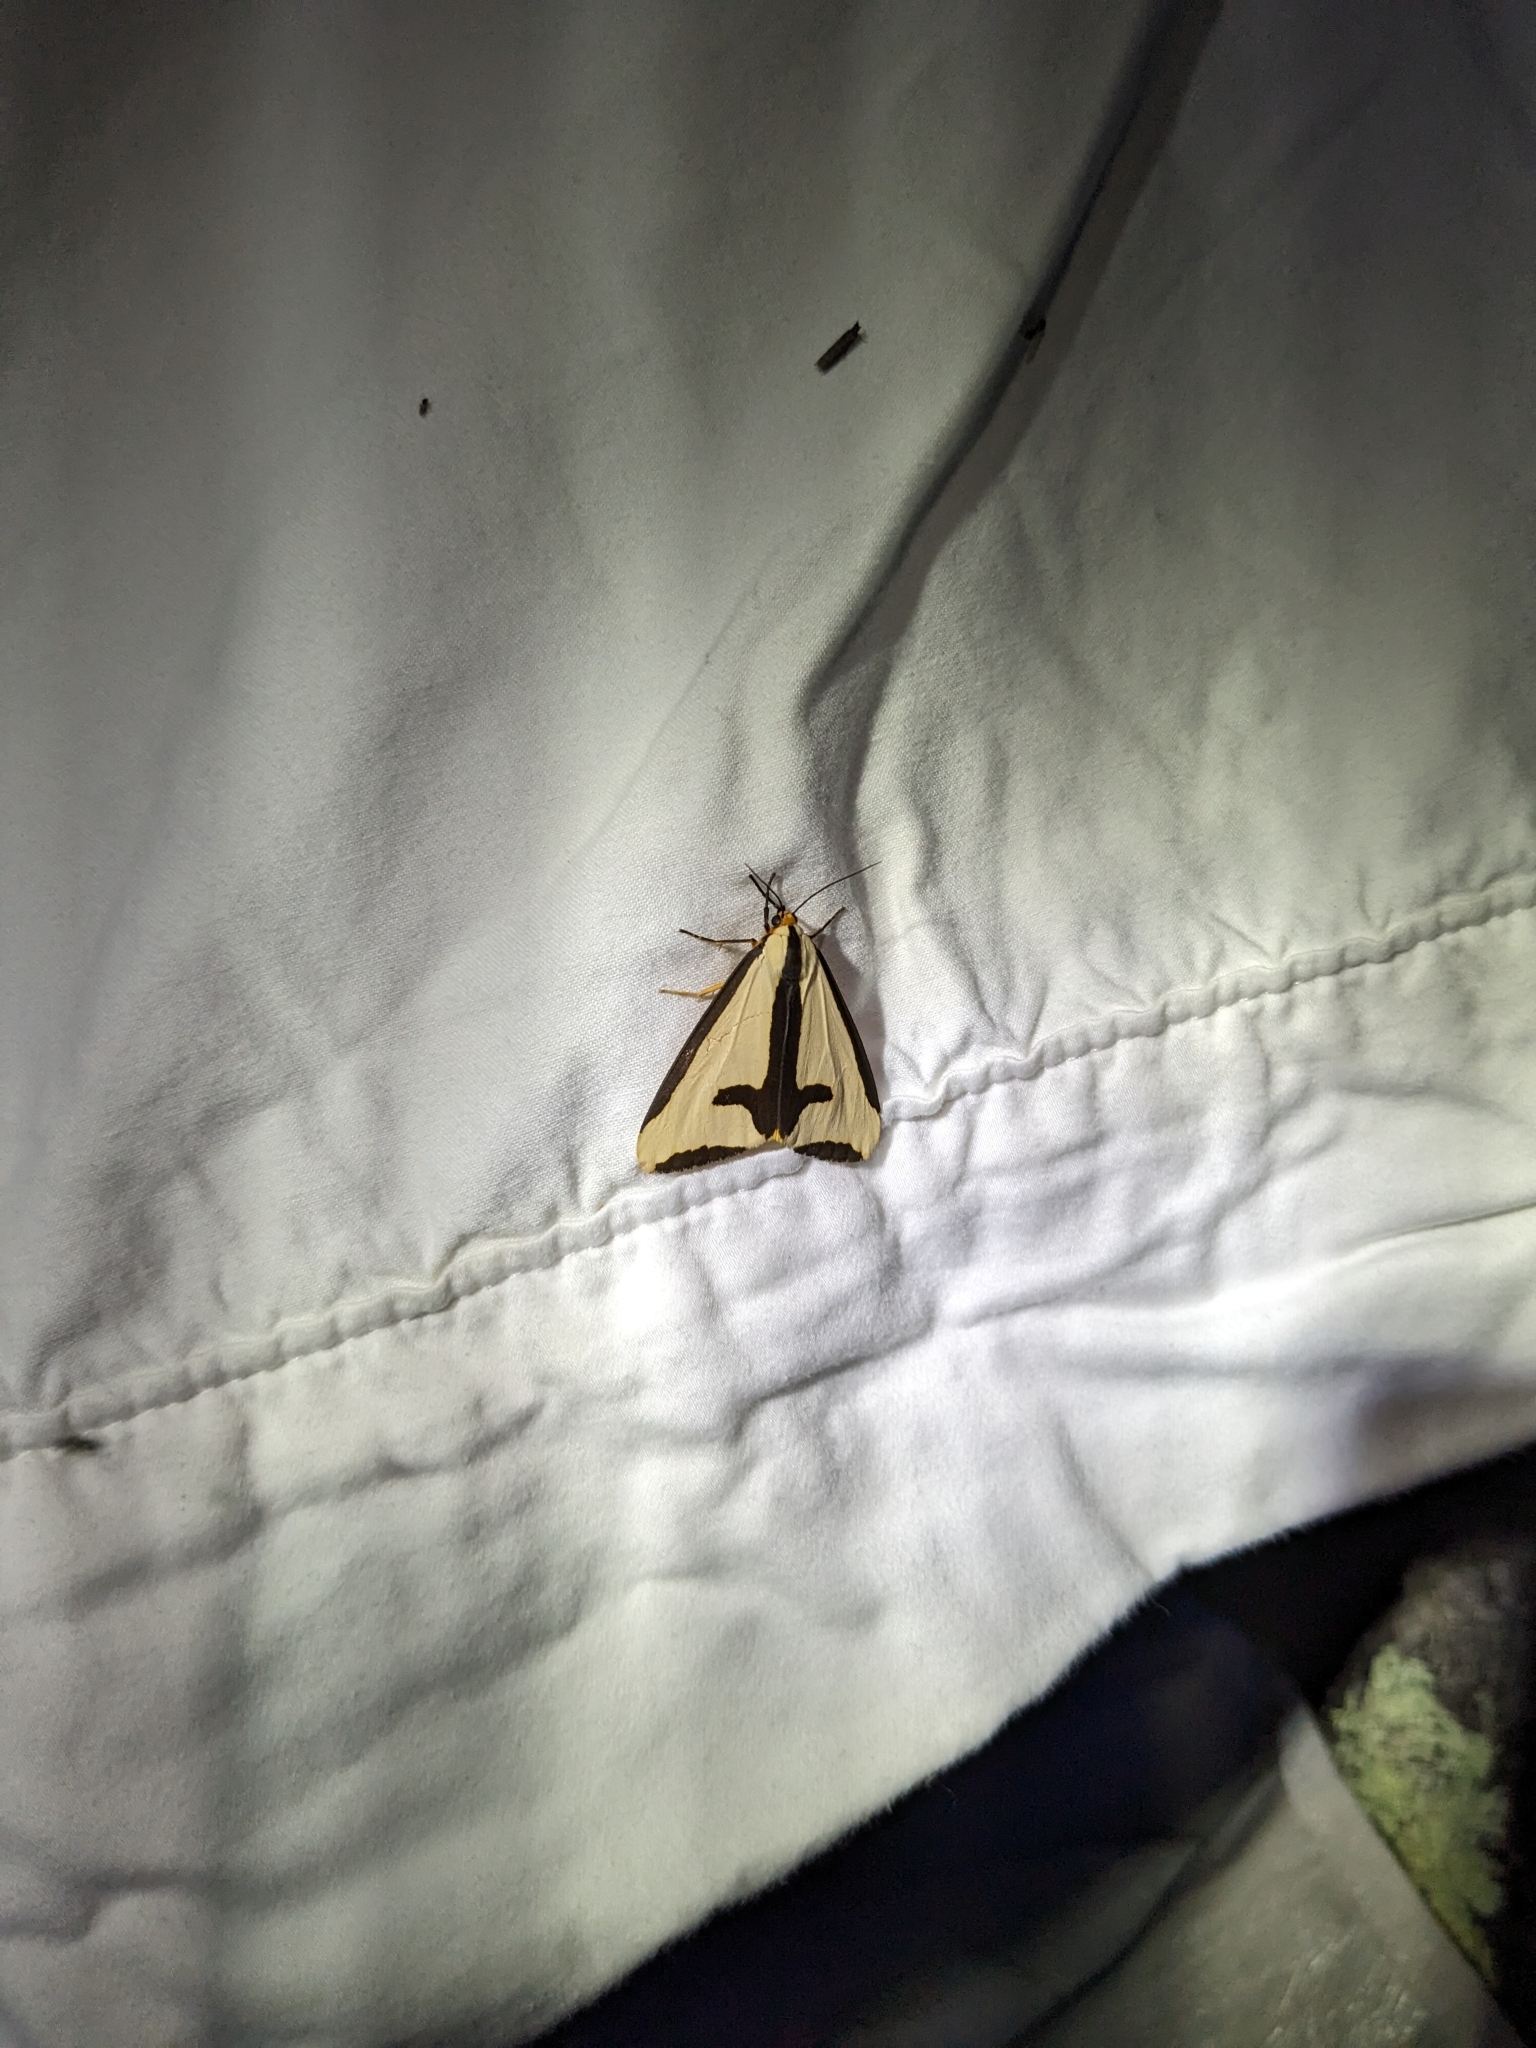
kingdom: Animalia
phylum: Arthropoda
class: Insecta
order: Lepidoptera
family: Erebidae
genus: Haploa
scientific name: Haploa clymene
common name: Clymene moth
